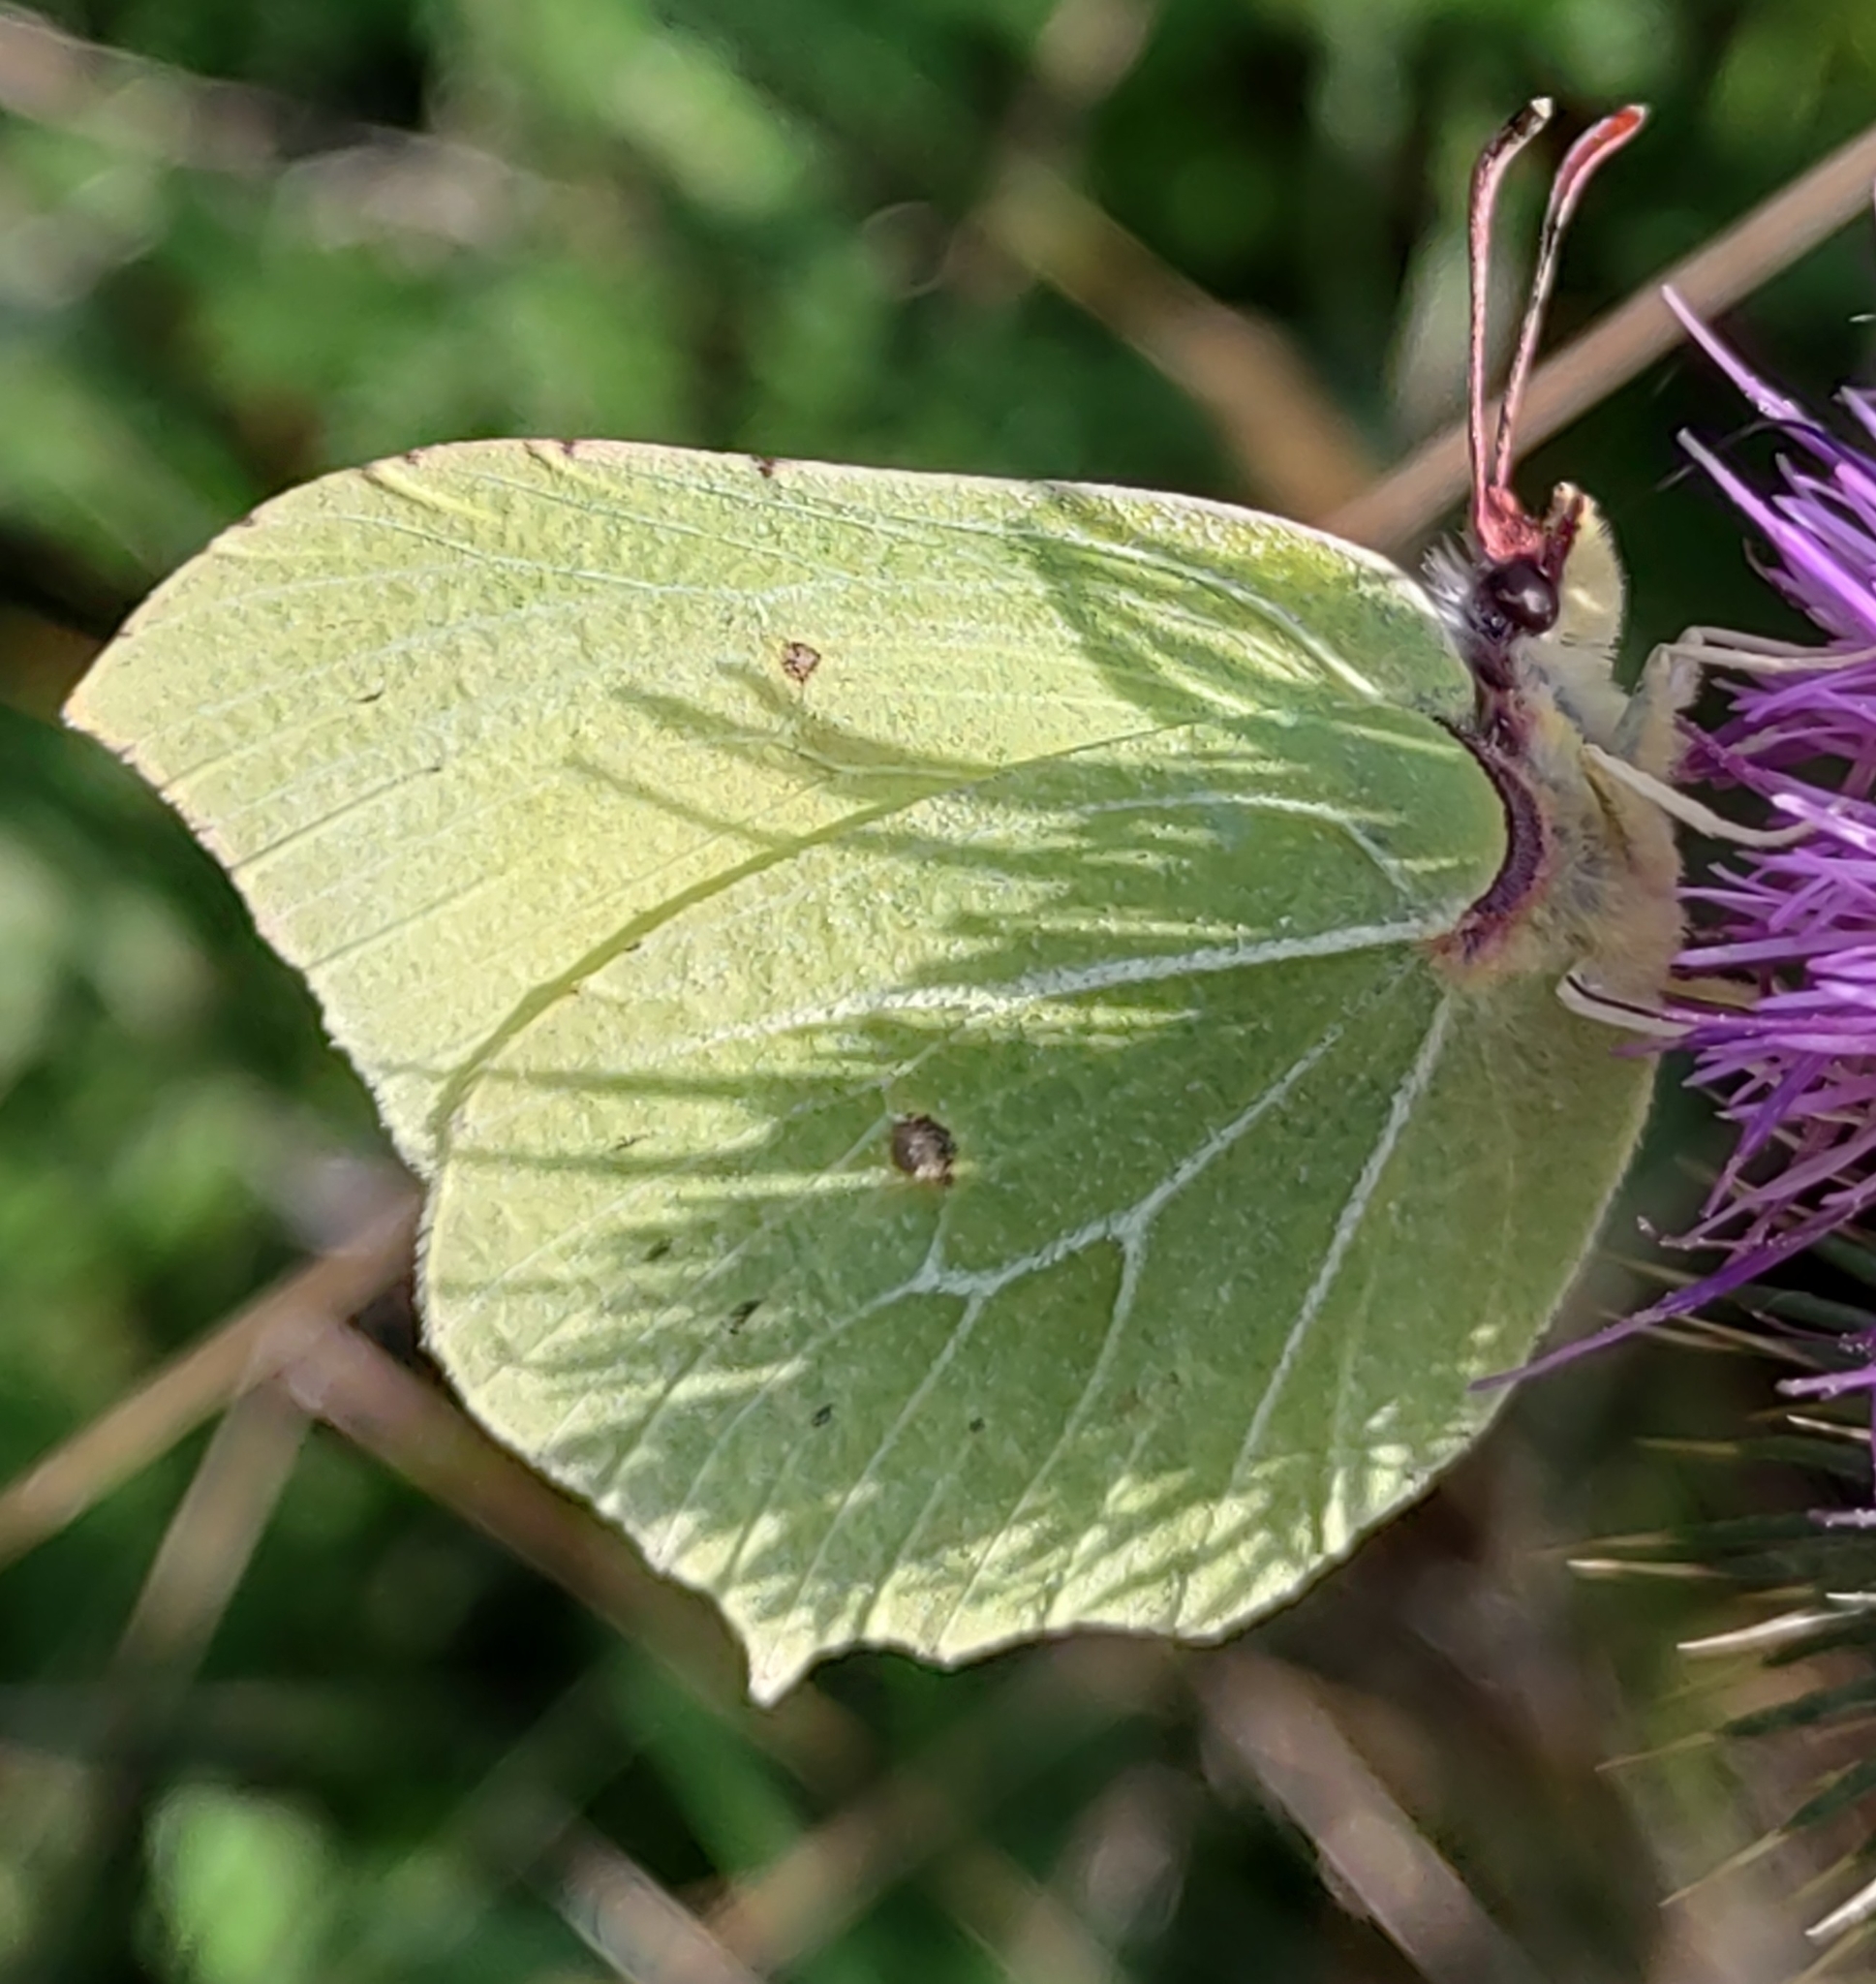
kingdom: Animalia
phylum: Arthropoda
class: Insecta
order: Lepidoptera
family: Pieridae
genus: Gonepteryx
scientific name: Gonepteryx rhamni
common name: Brimstone
